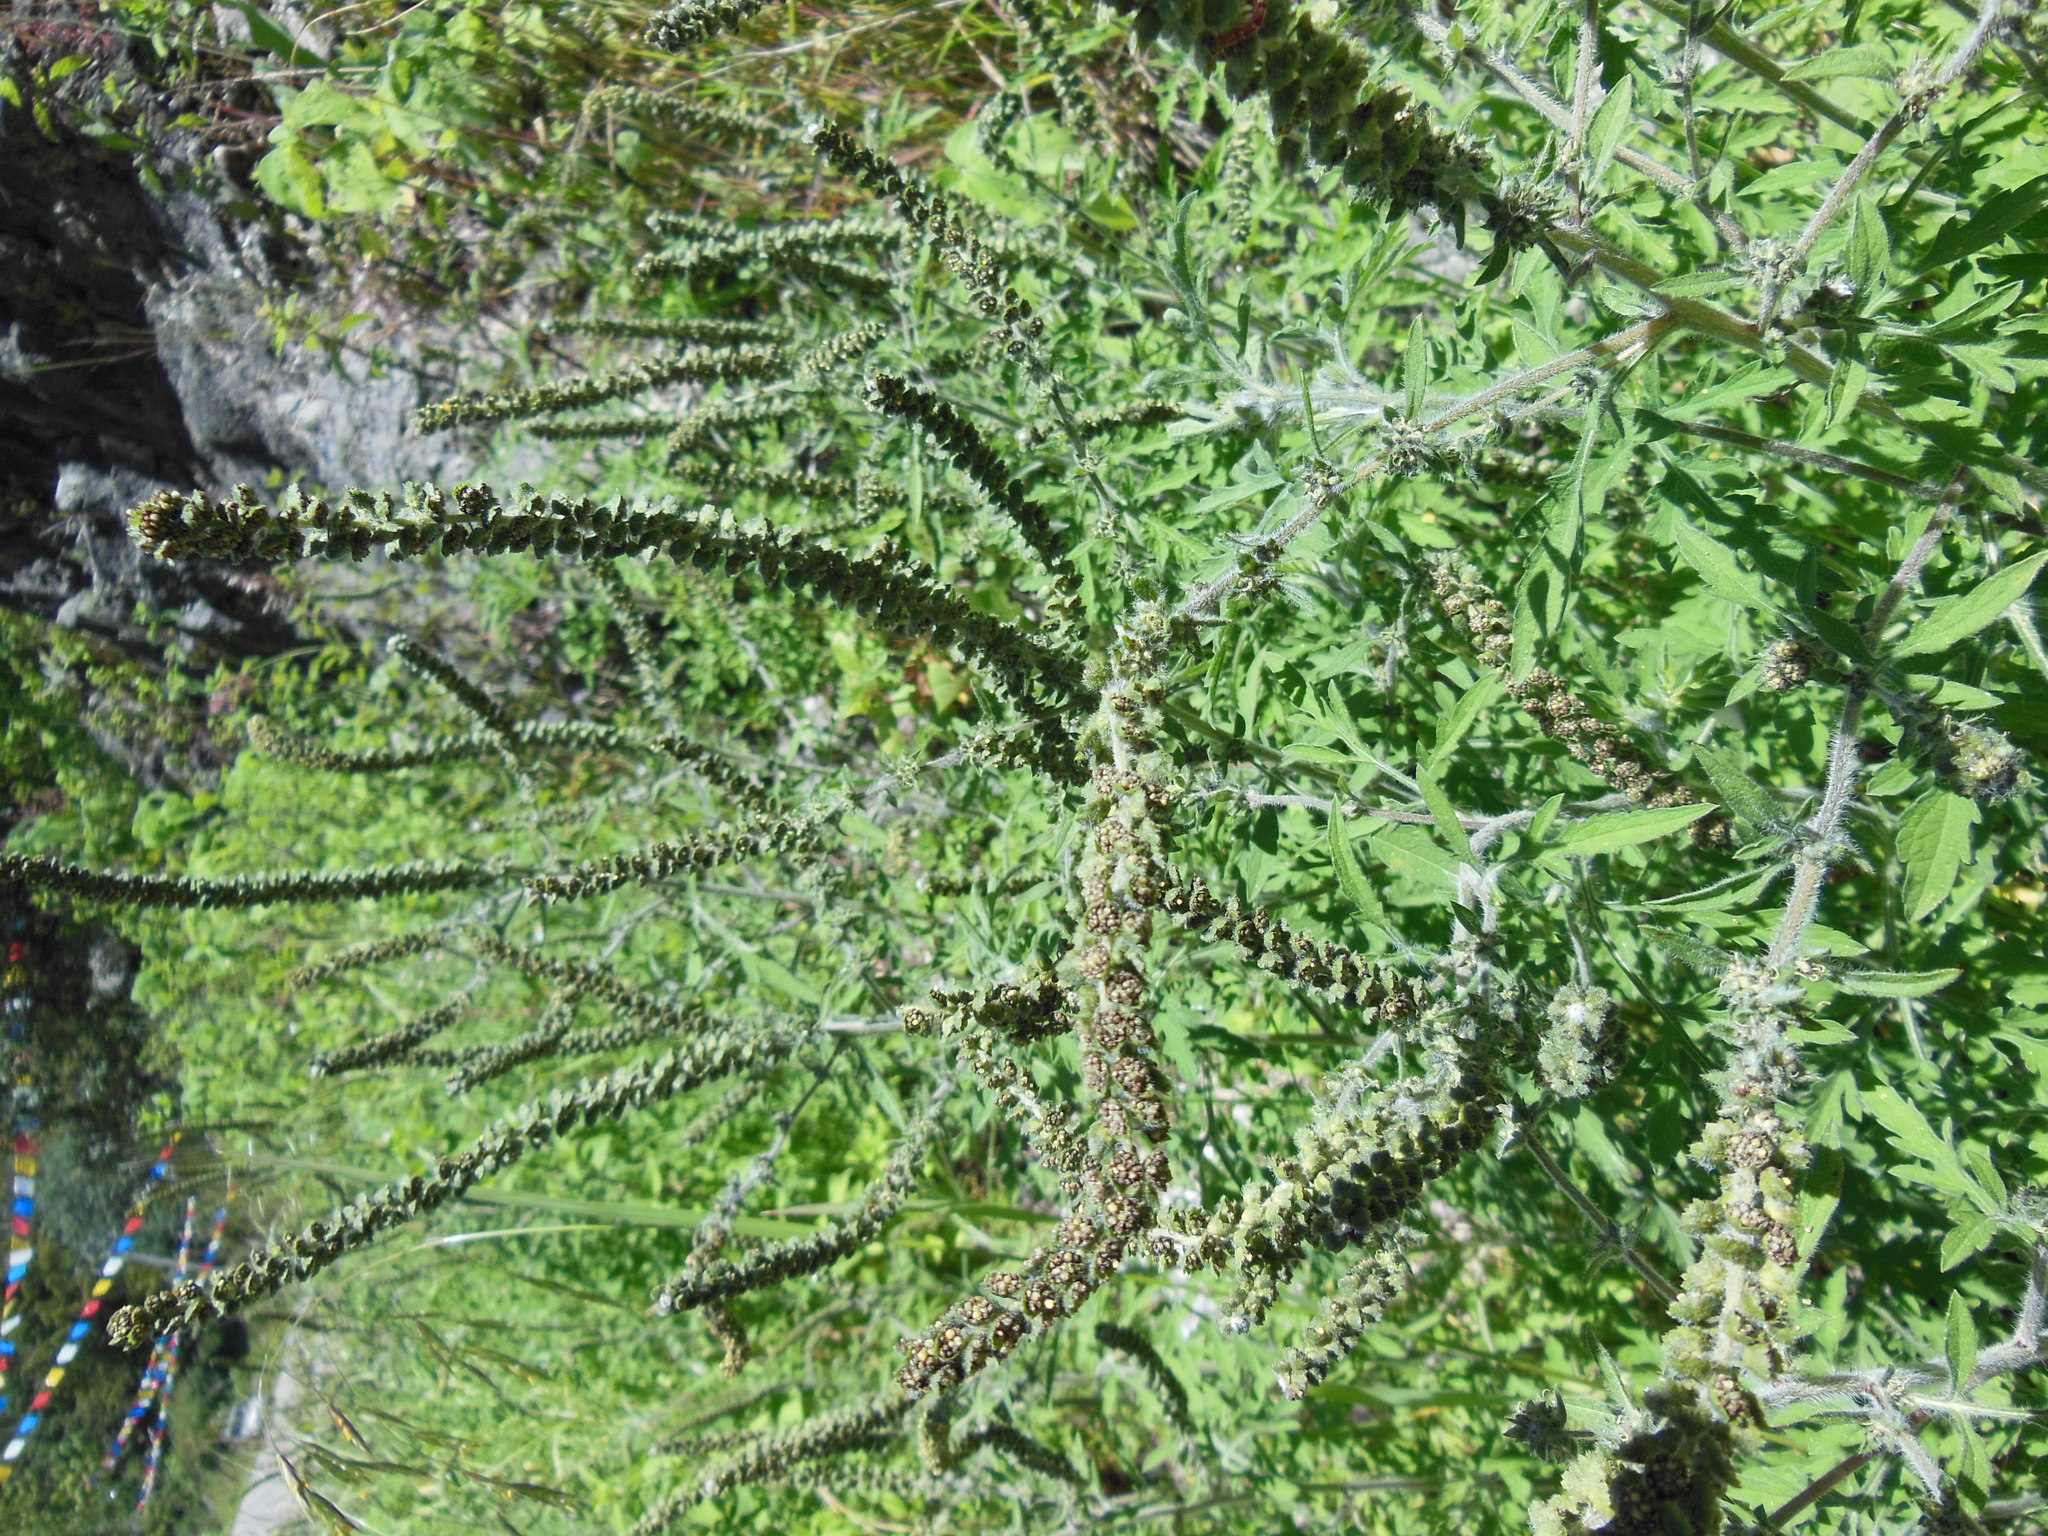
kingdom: Plantae
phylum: Tracheophyta
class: Magnoliopsida
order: Asterales
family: Asteraceae
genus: Ambrosia
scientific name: Ambrosia
